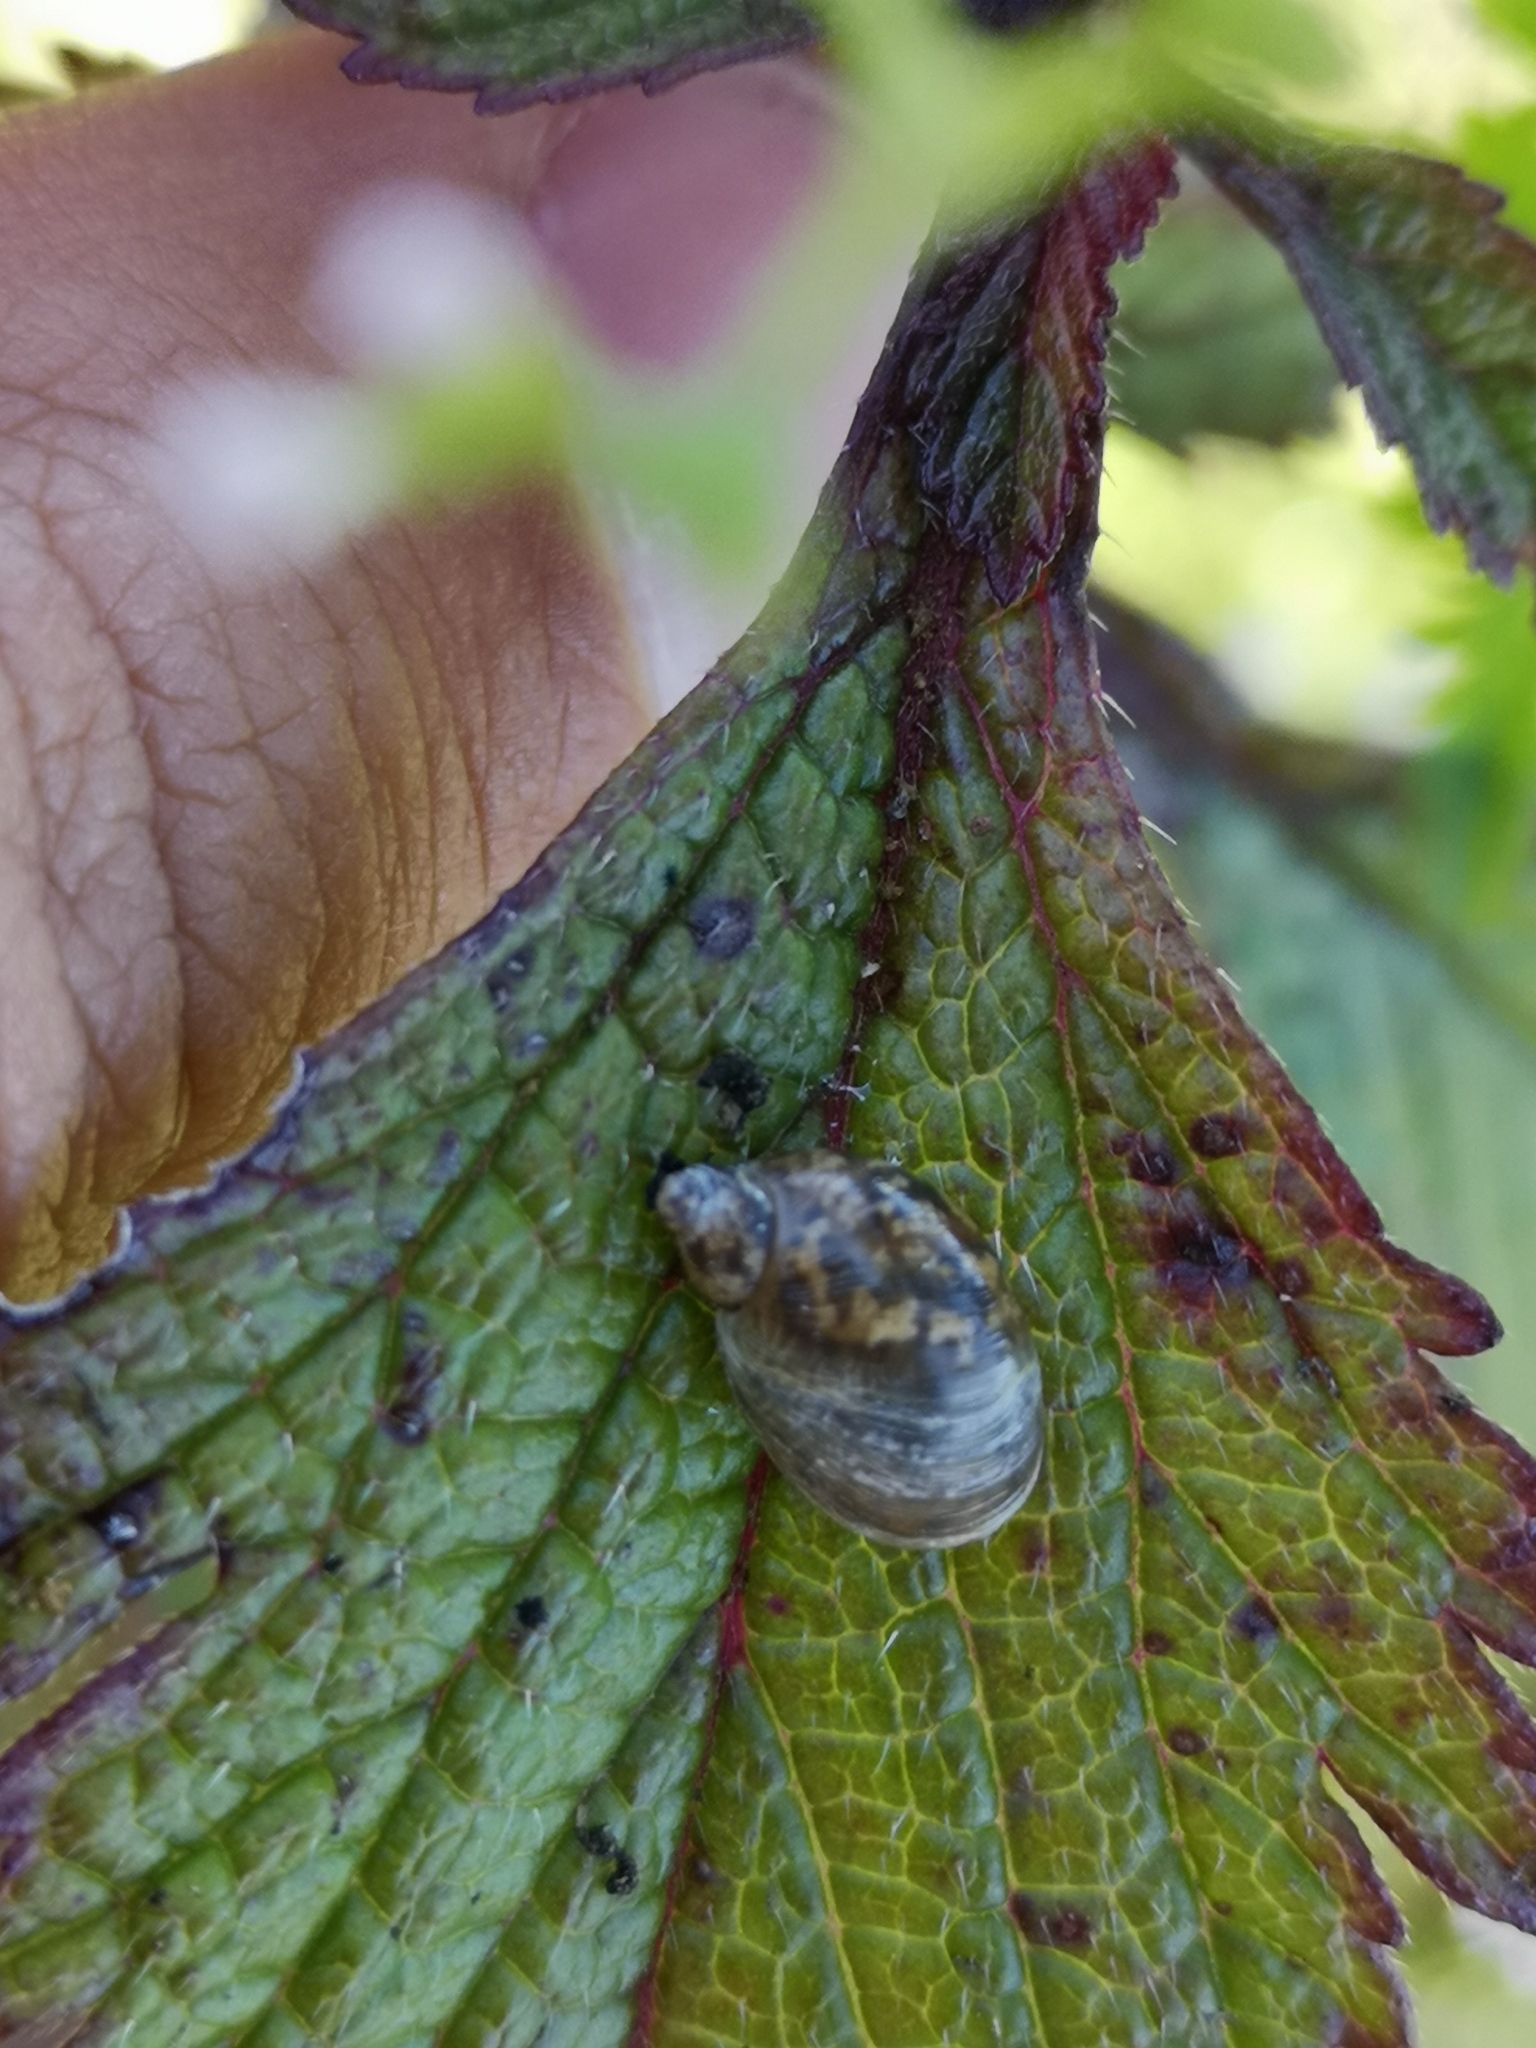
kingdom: Animalia
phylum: Mollusca
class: Gastropoda
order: Stylommatophora
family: Succineidae
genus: Succinea
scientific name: Succinea bettii
